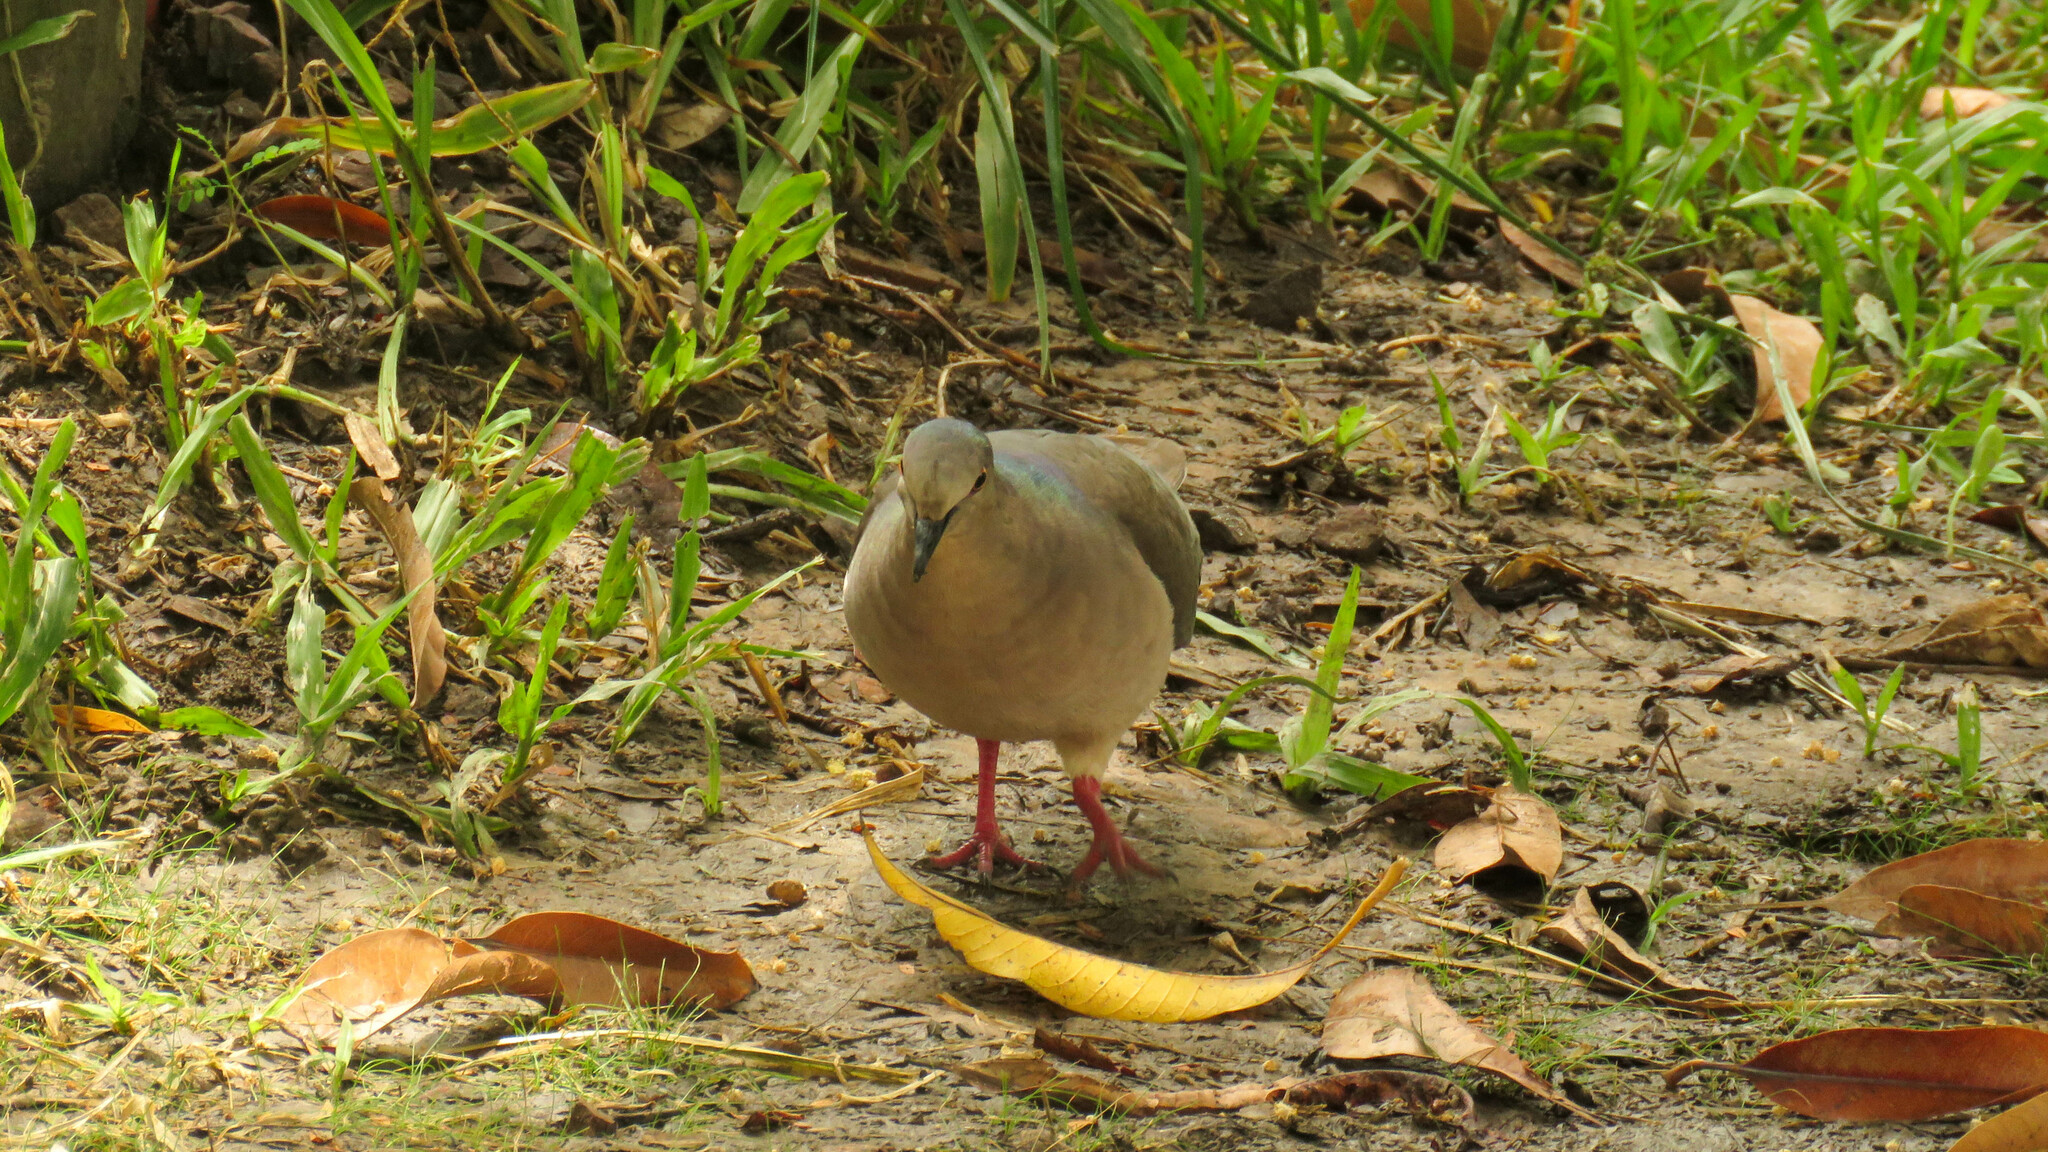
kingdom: Animalia
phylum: Chordata
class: Aves
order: Columbiformes
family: Columbidae
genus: Leptotila
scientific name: Leptotila verreauxi
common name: White-tipped dove
